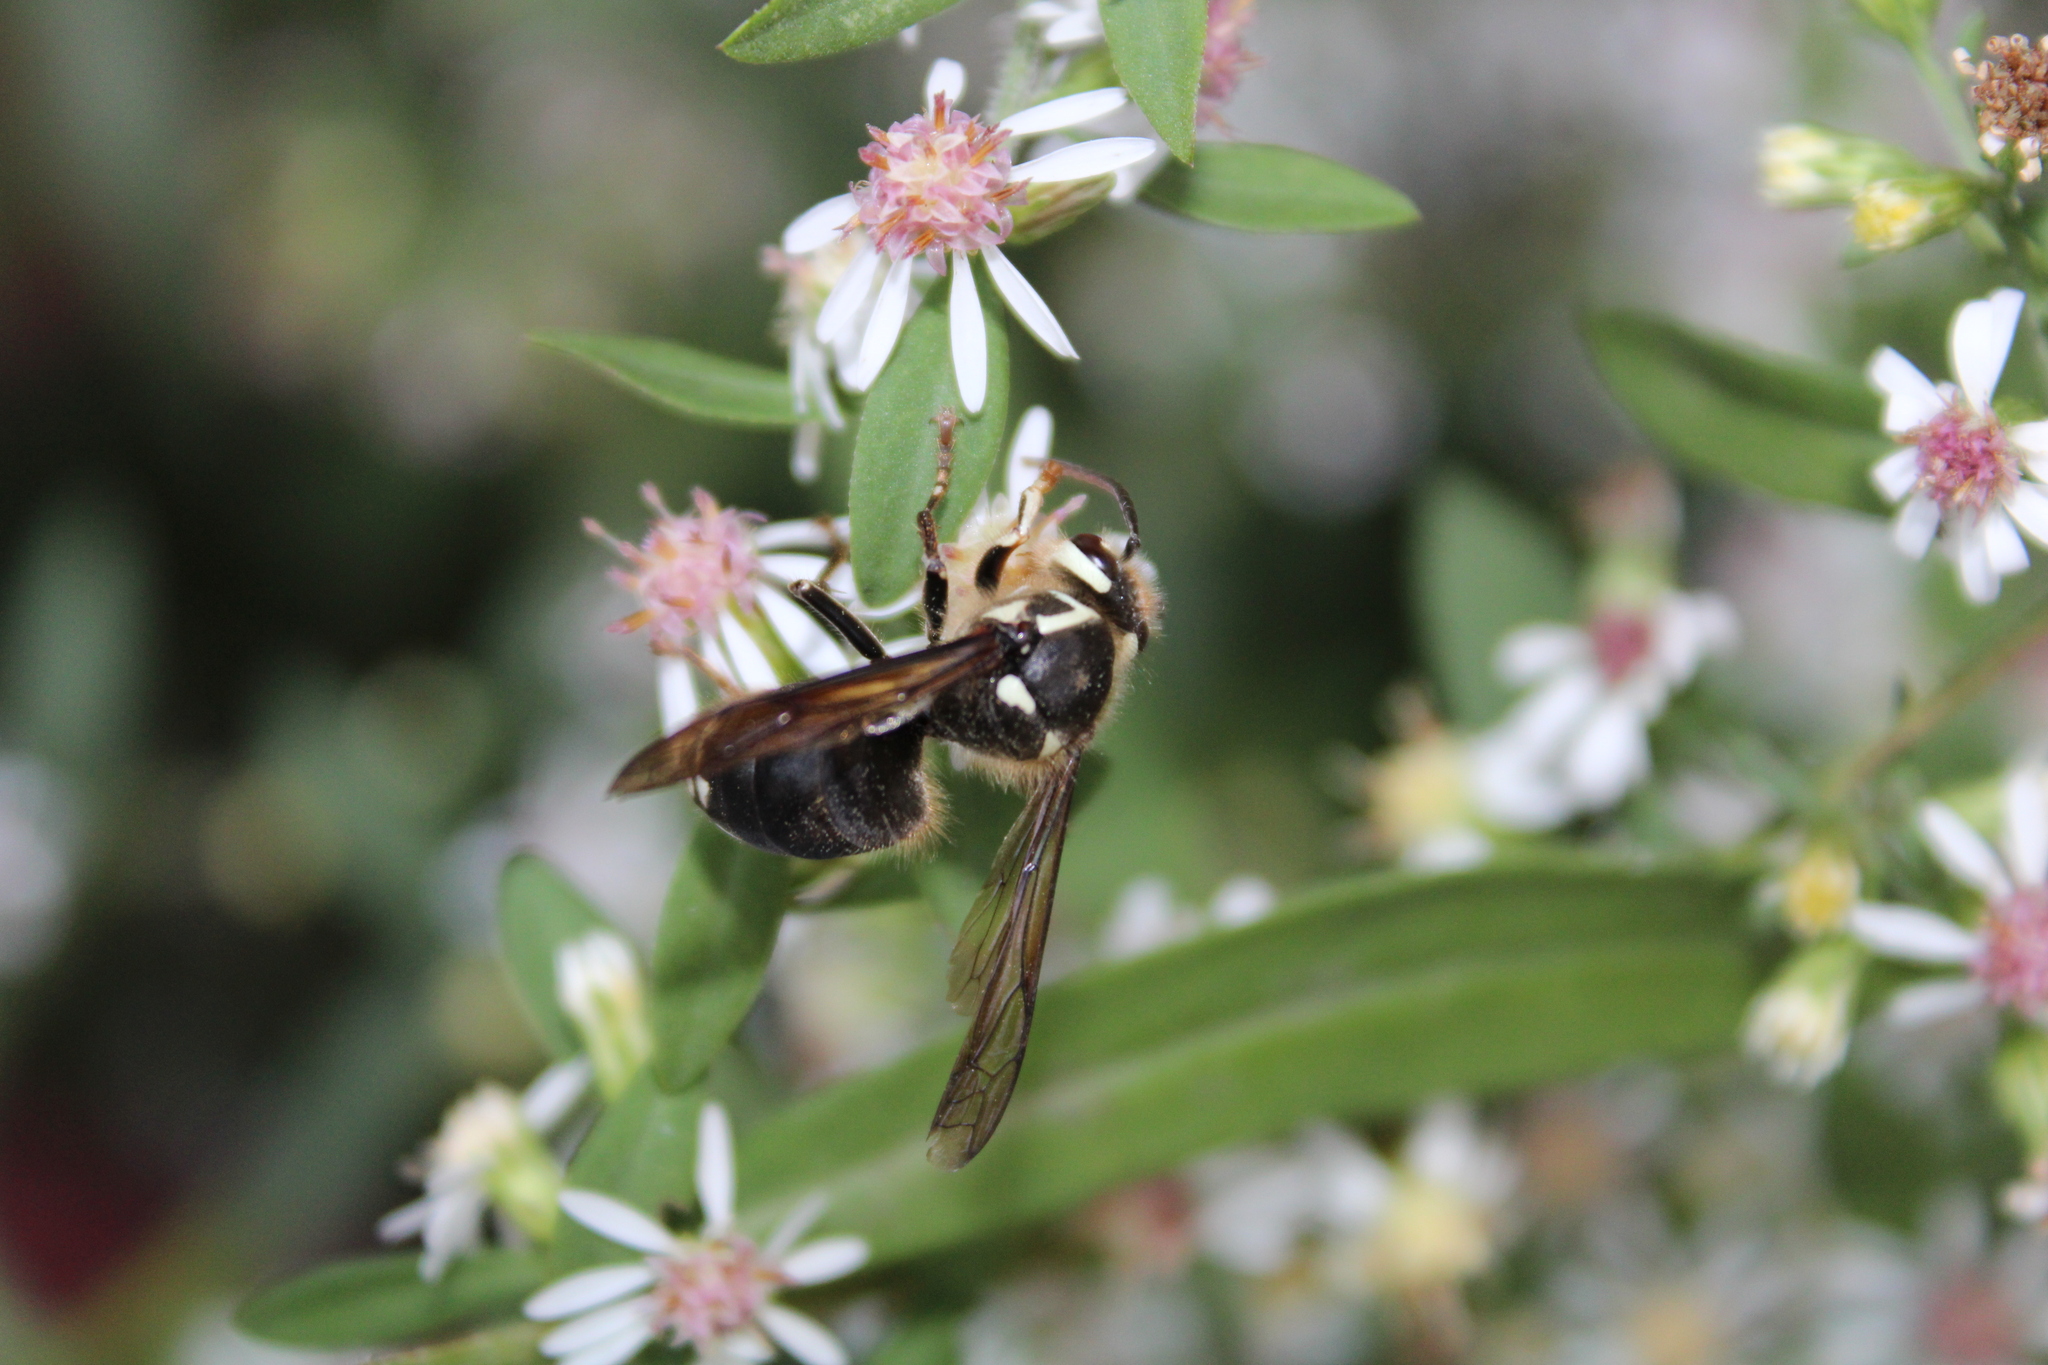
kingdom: Animalia
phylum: Arthropoda
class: Insecta
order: Hymenoptera
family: Vespidae
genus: Dolichovespula
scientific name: Dolichovespula maculata
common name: Bald-faced hornet
